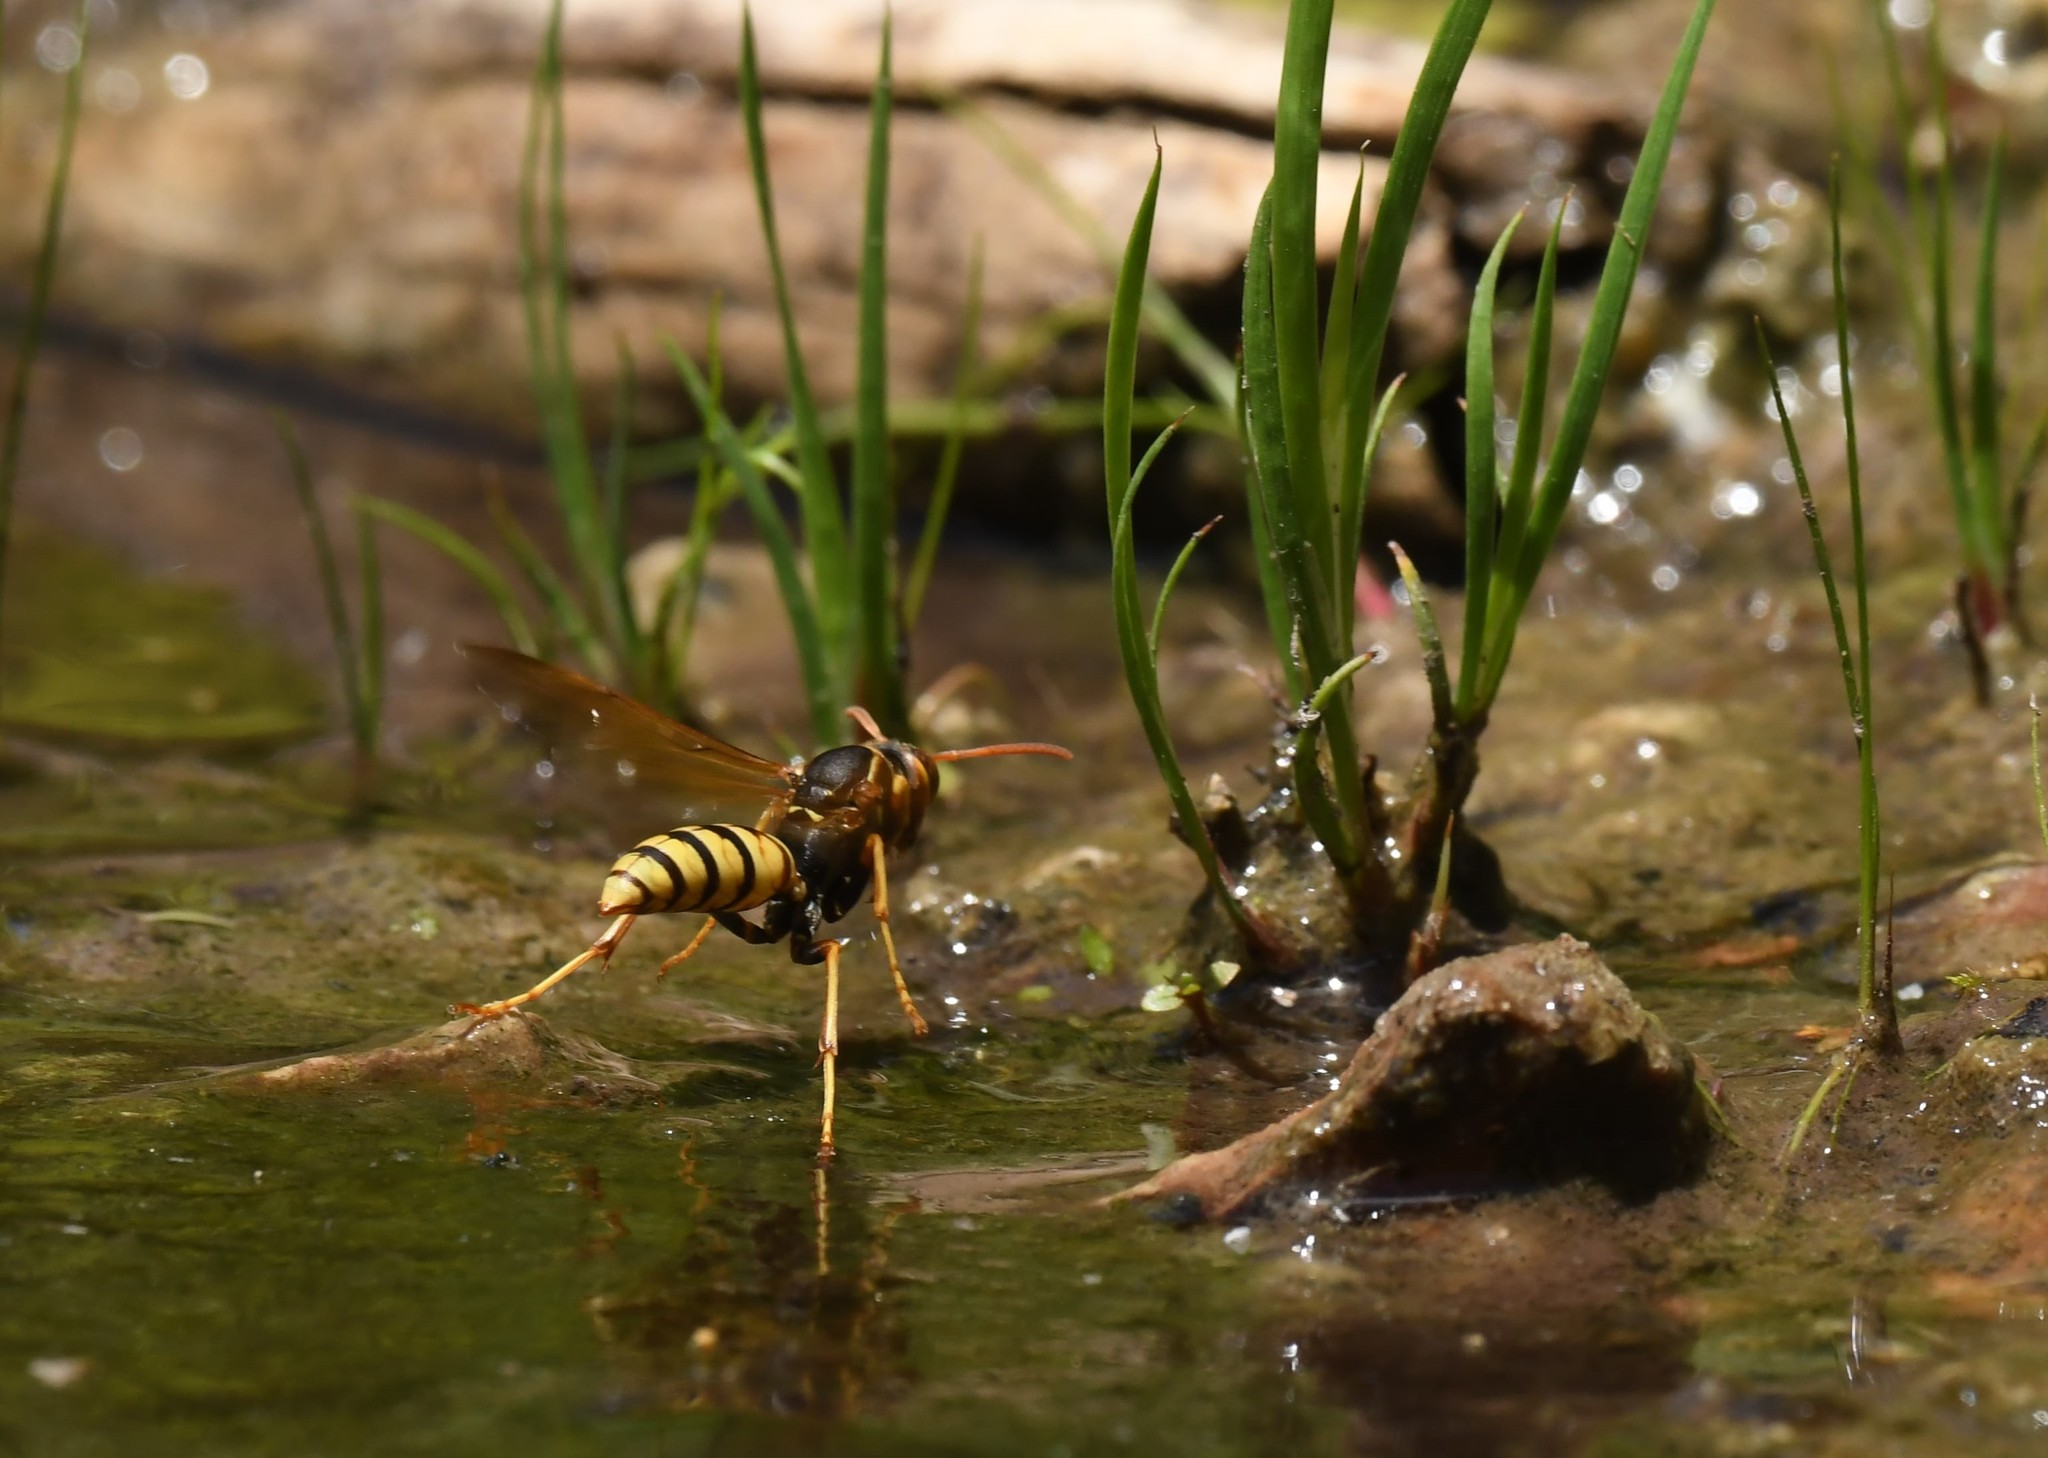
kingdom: Animalia
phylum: Arthropoda
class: Insecta
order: Hymenoptera
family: Eumenidae
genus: Polistes
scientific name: Polistes aurifer
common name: Paper wasp
